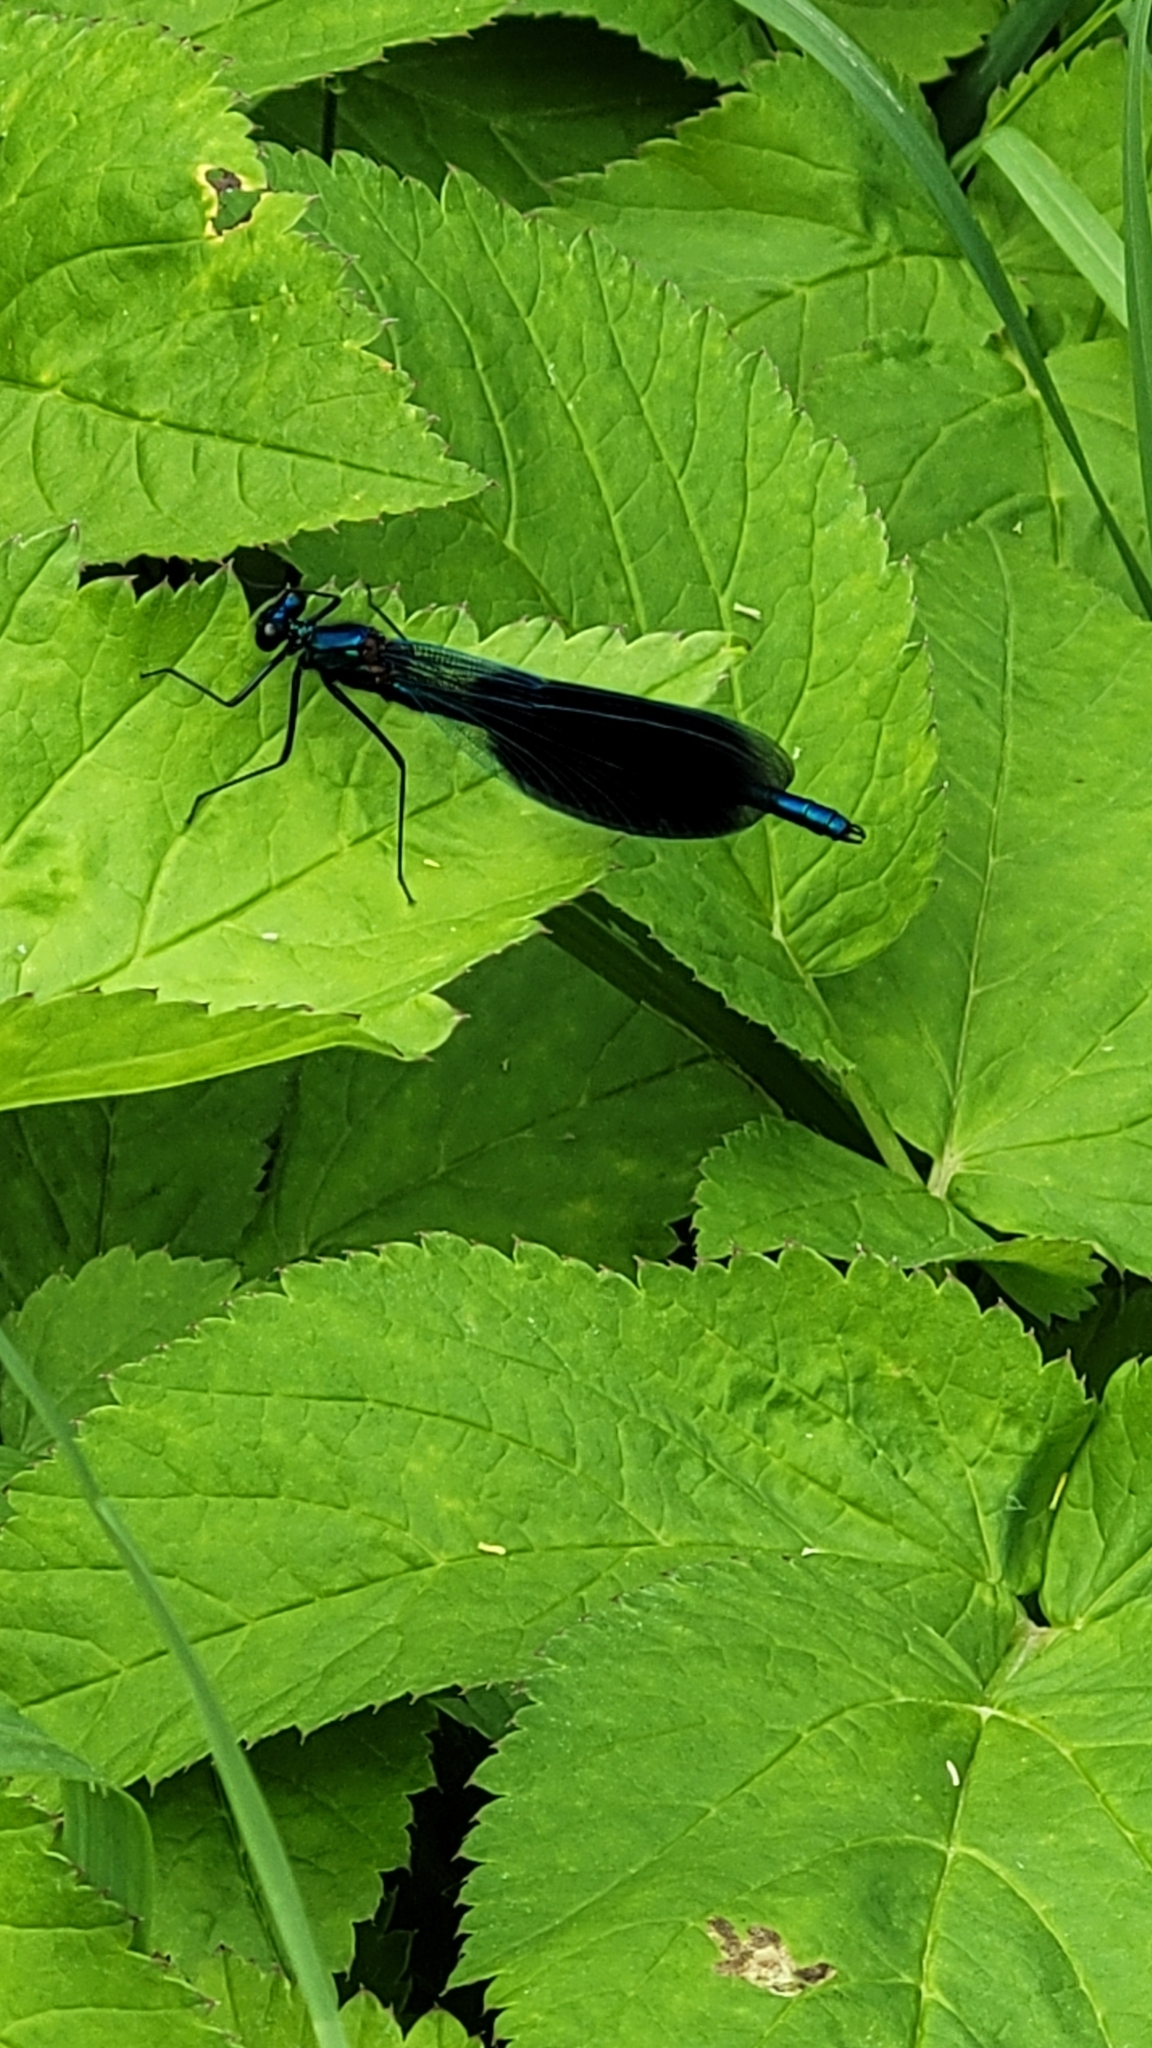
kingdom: Animalia
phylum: Arthropoda
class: Insecta
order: Odonata
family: Calopterygidae
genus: Calopteryx
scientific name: Calopteryx splendens
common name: Banded demoiselle
